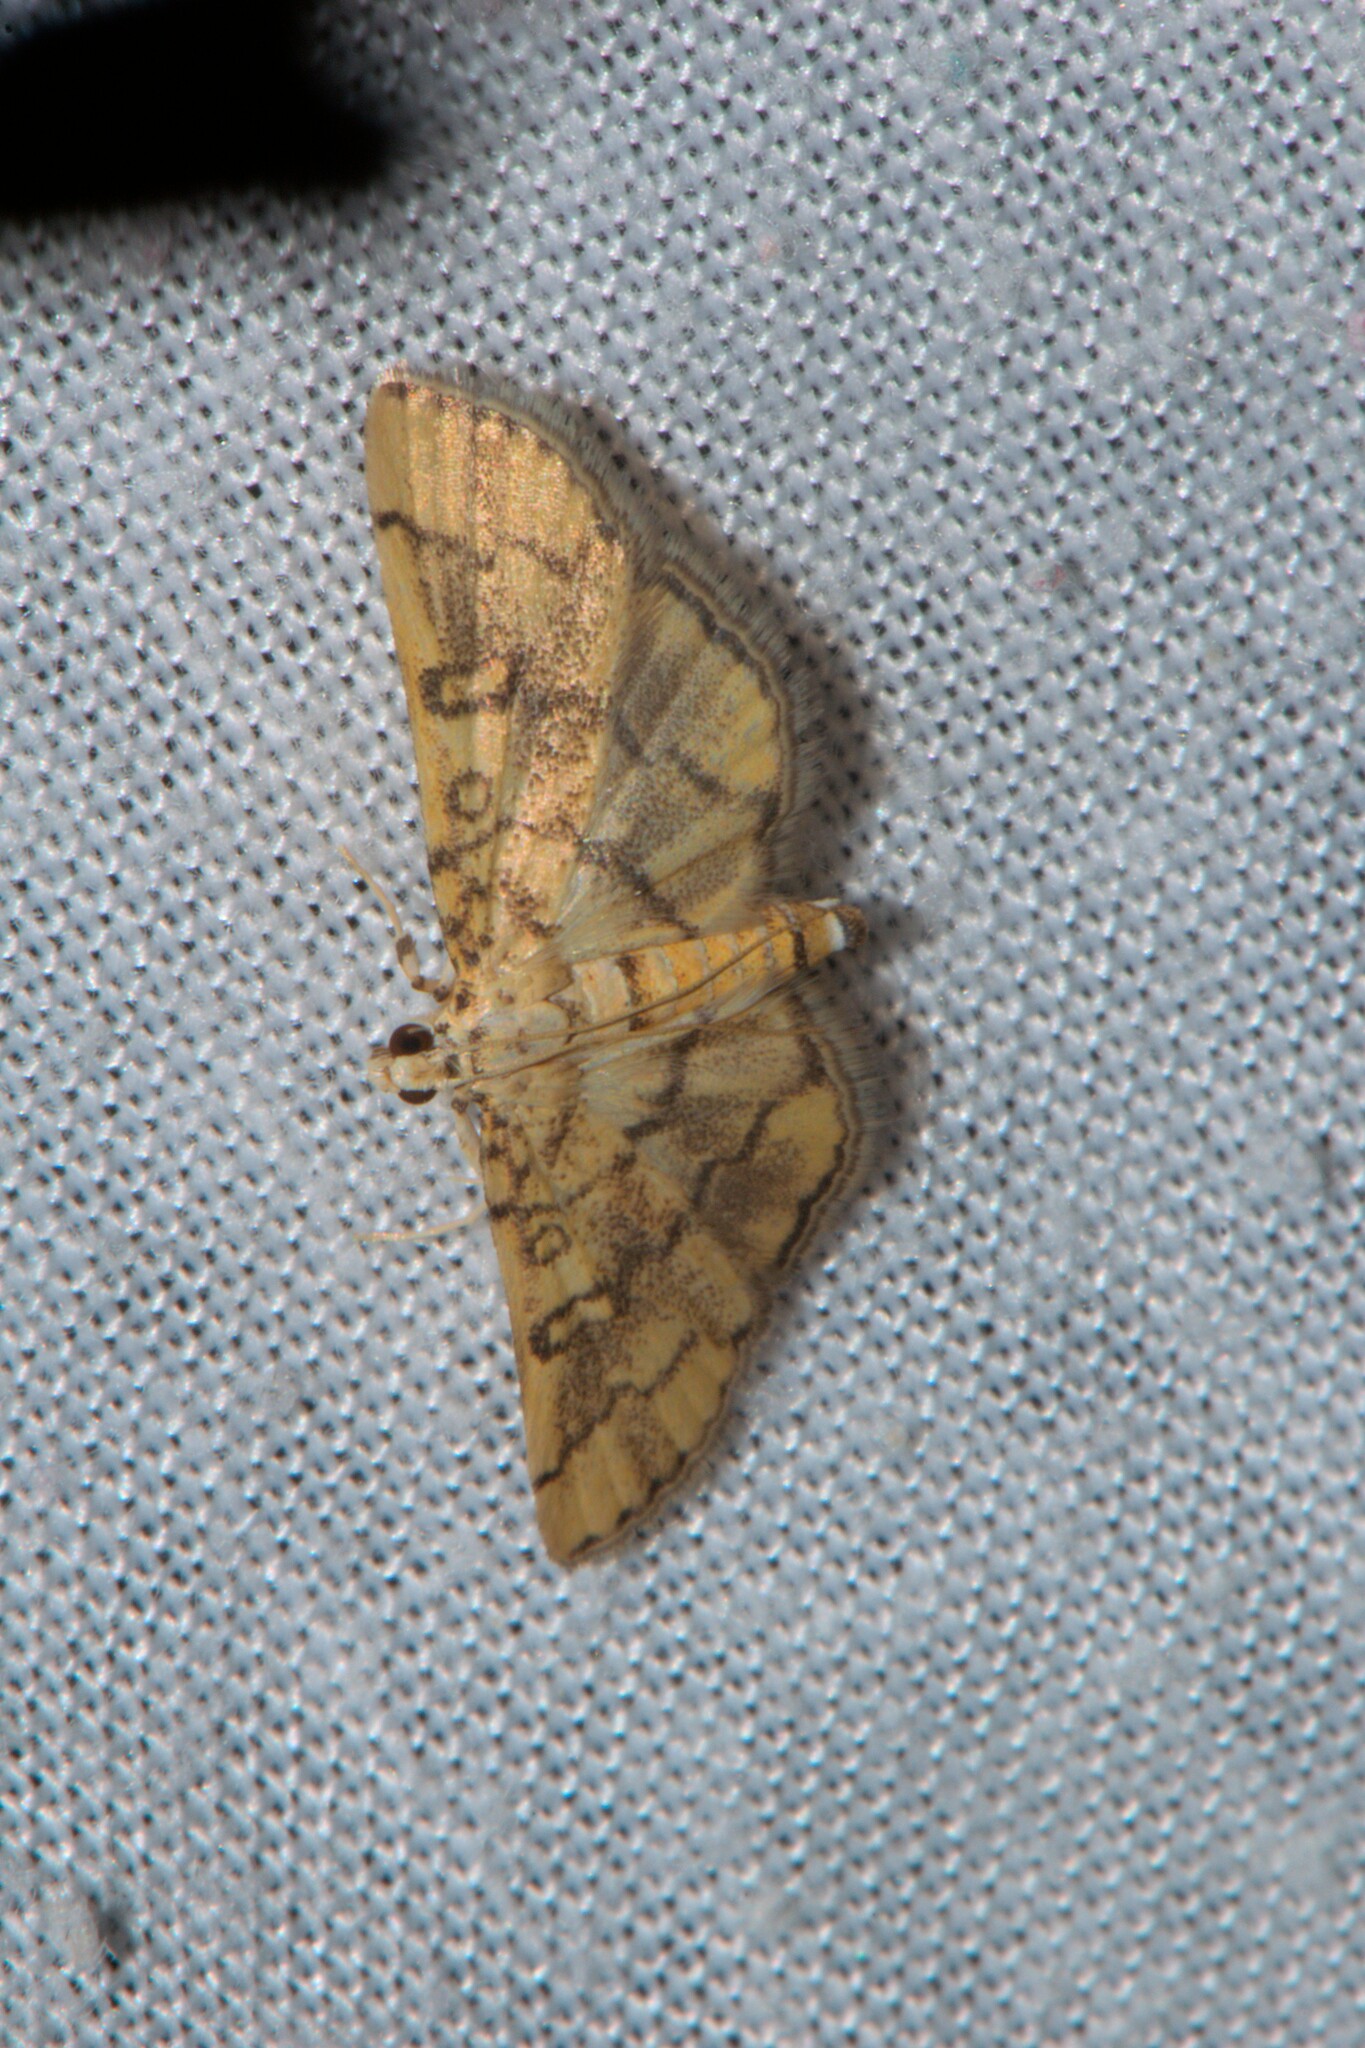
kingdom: Animalia
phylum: Arthropoda
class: Insecta
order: Lepidoptera
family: Crambidae
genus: Lamprosema
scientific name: Lamprosema tampiusalis
